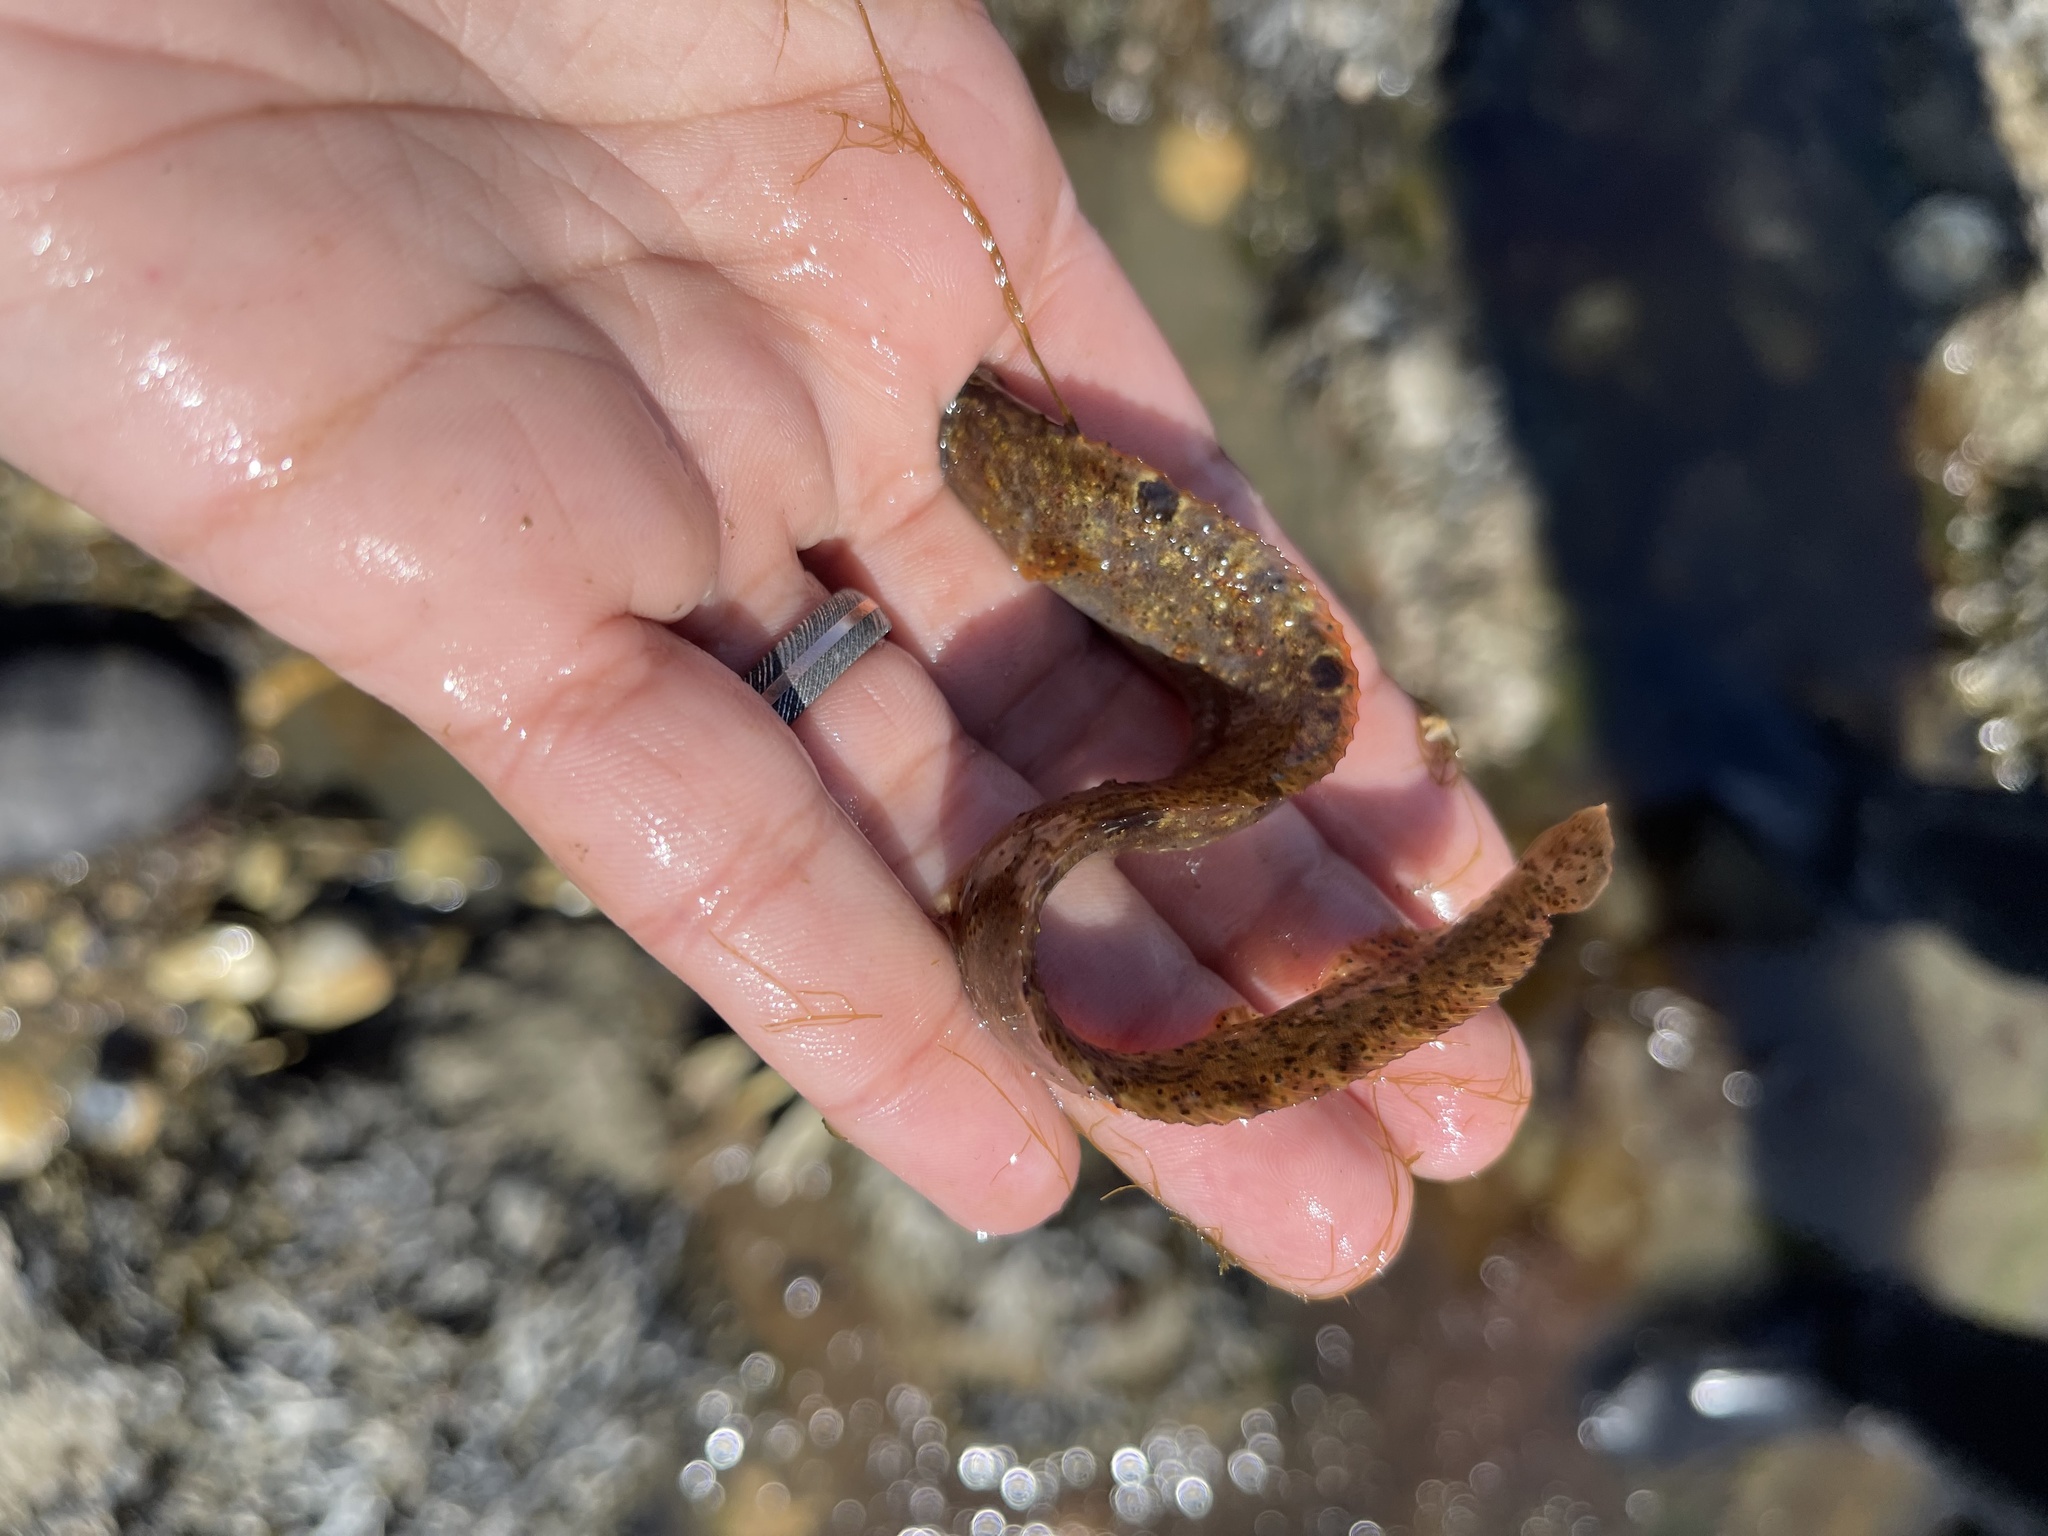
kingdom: Animalia
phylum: Chordata
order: Perciformes
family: Pholidae
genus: Pholis
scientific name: Pholis gunnellus
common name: Butterfish
